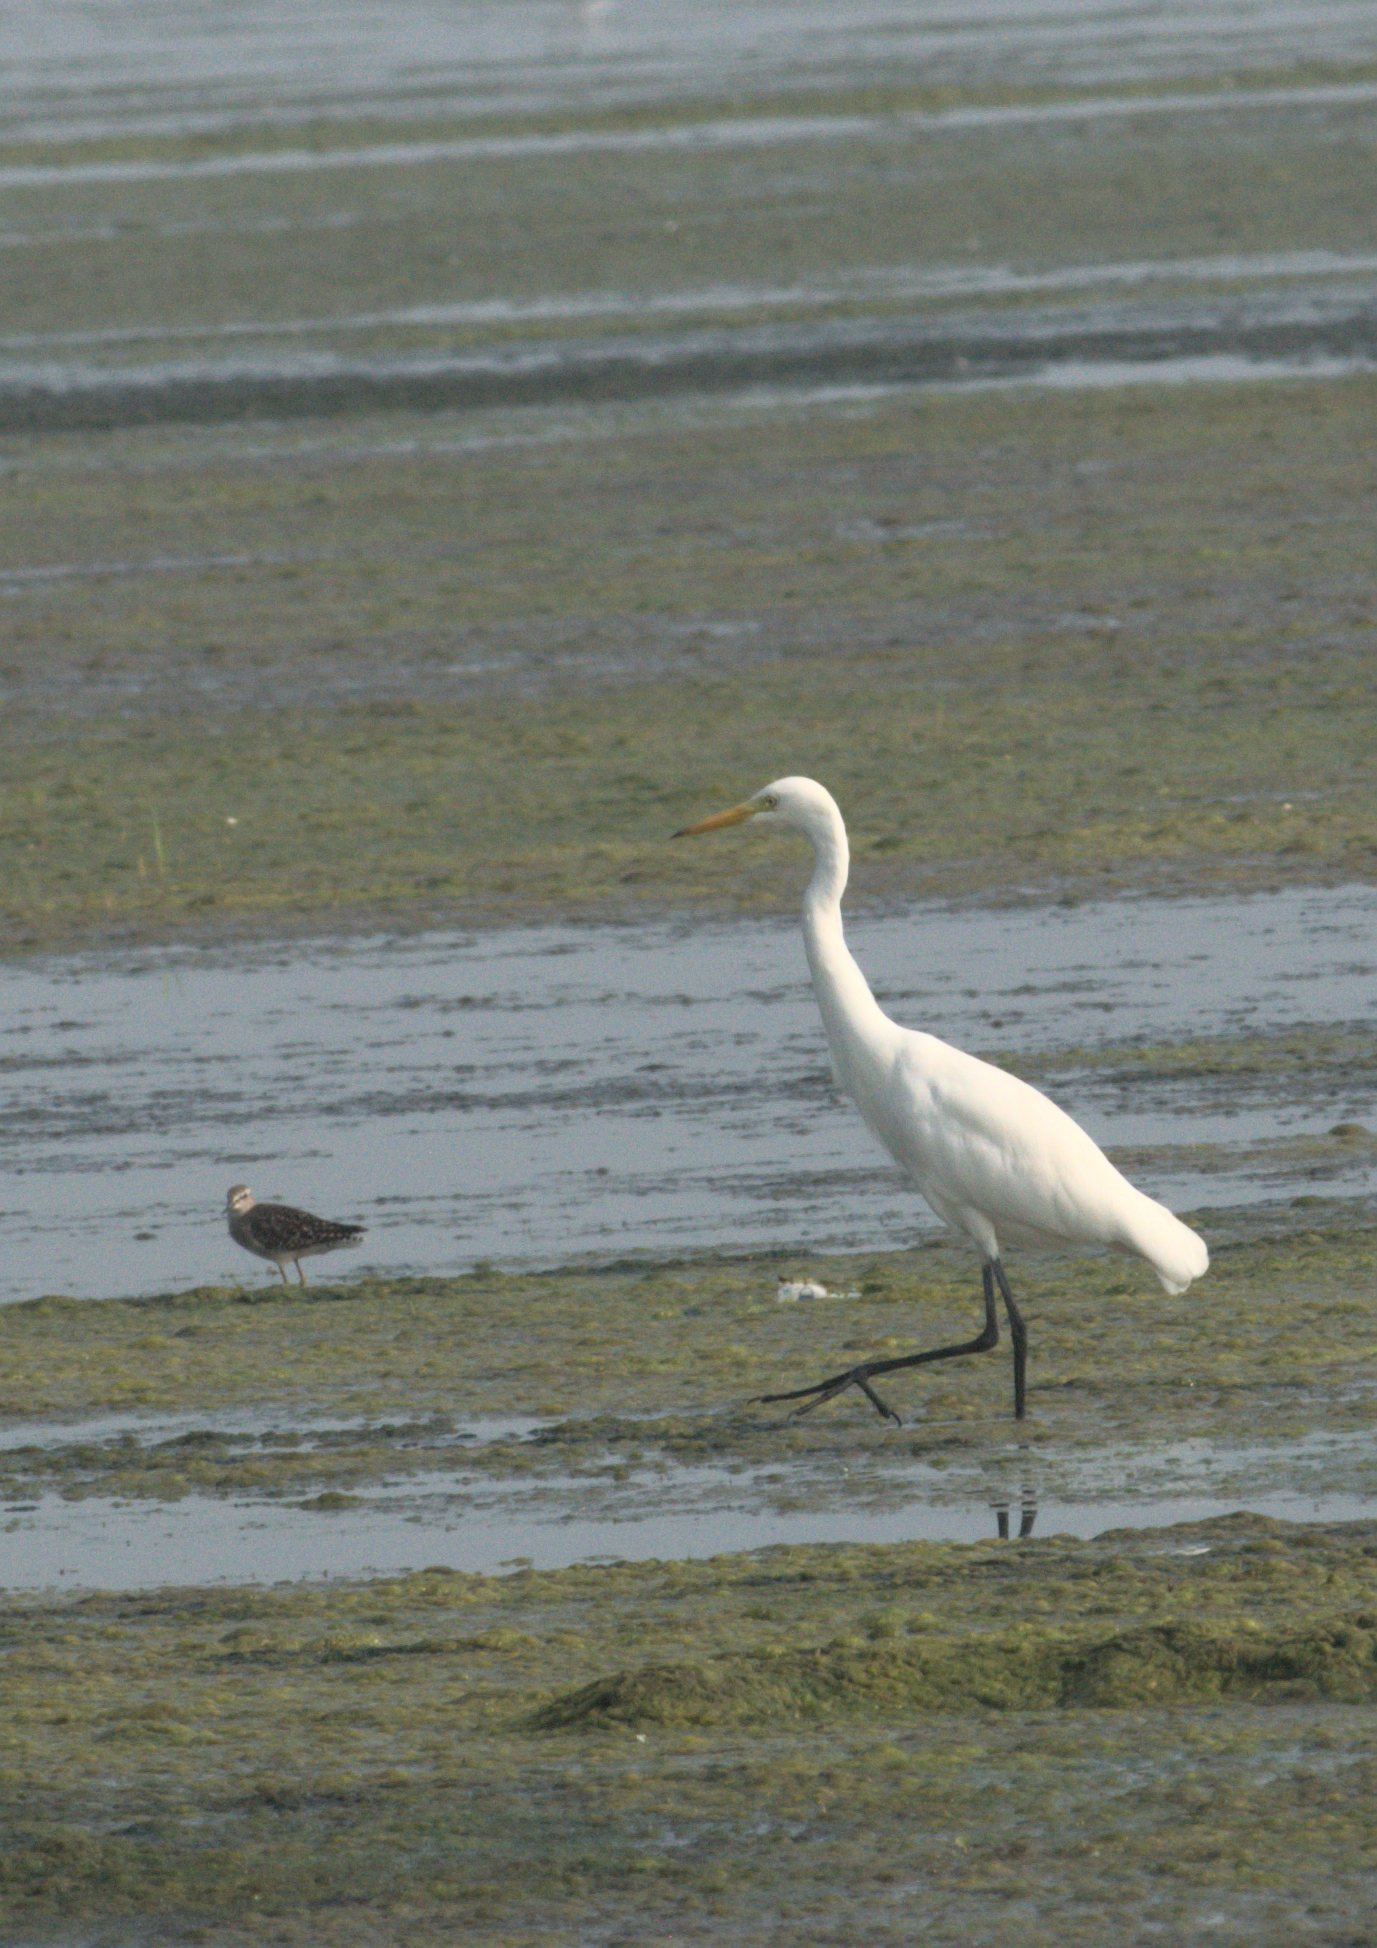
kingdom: Animalia
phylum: Chordata
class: Aves
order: Pelecaniformes
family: Ardeidae
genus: Egretta
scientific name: Egretta intermedia
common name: Intermediate egret
